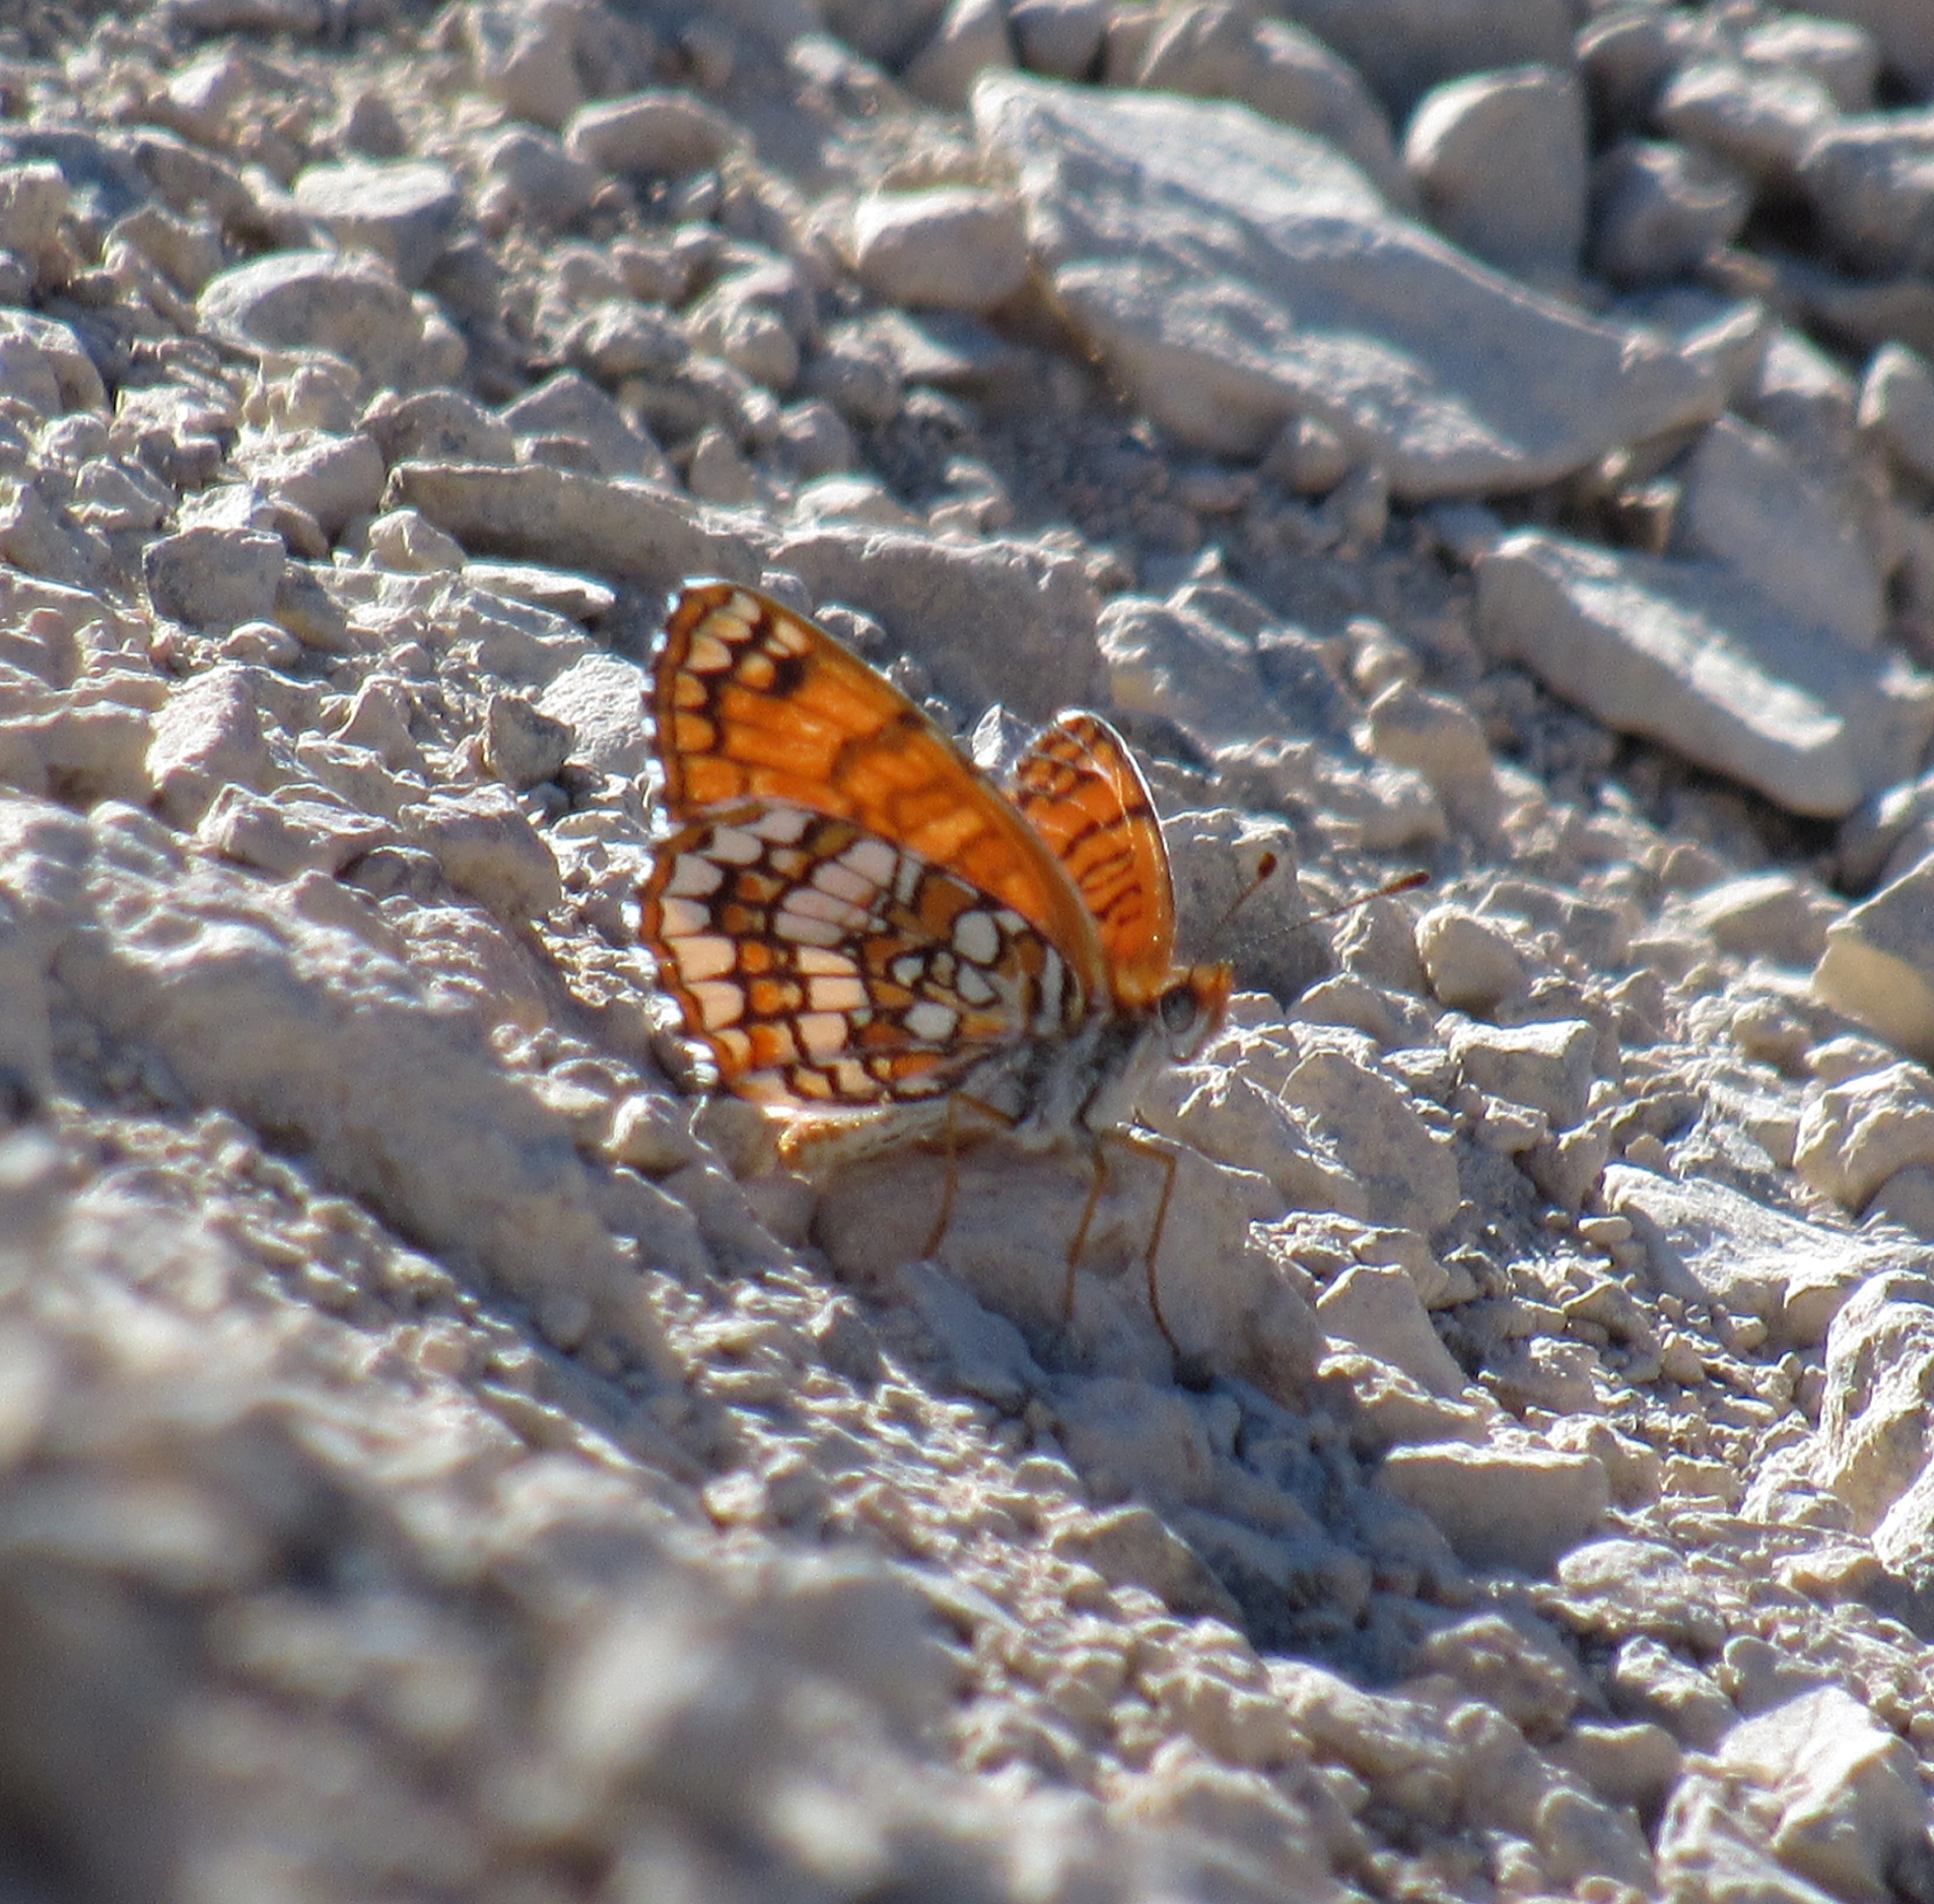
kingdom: Animalia
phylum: Arthropoda
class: Insecta
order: Lepidoptera
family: Nymphalidae
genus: Chlosyne
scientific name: Chlosyne acastus
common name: Sagebrush checkerspot
